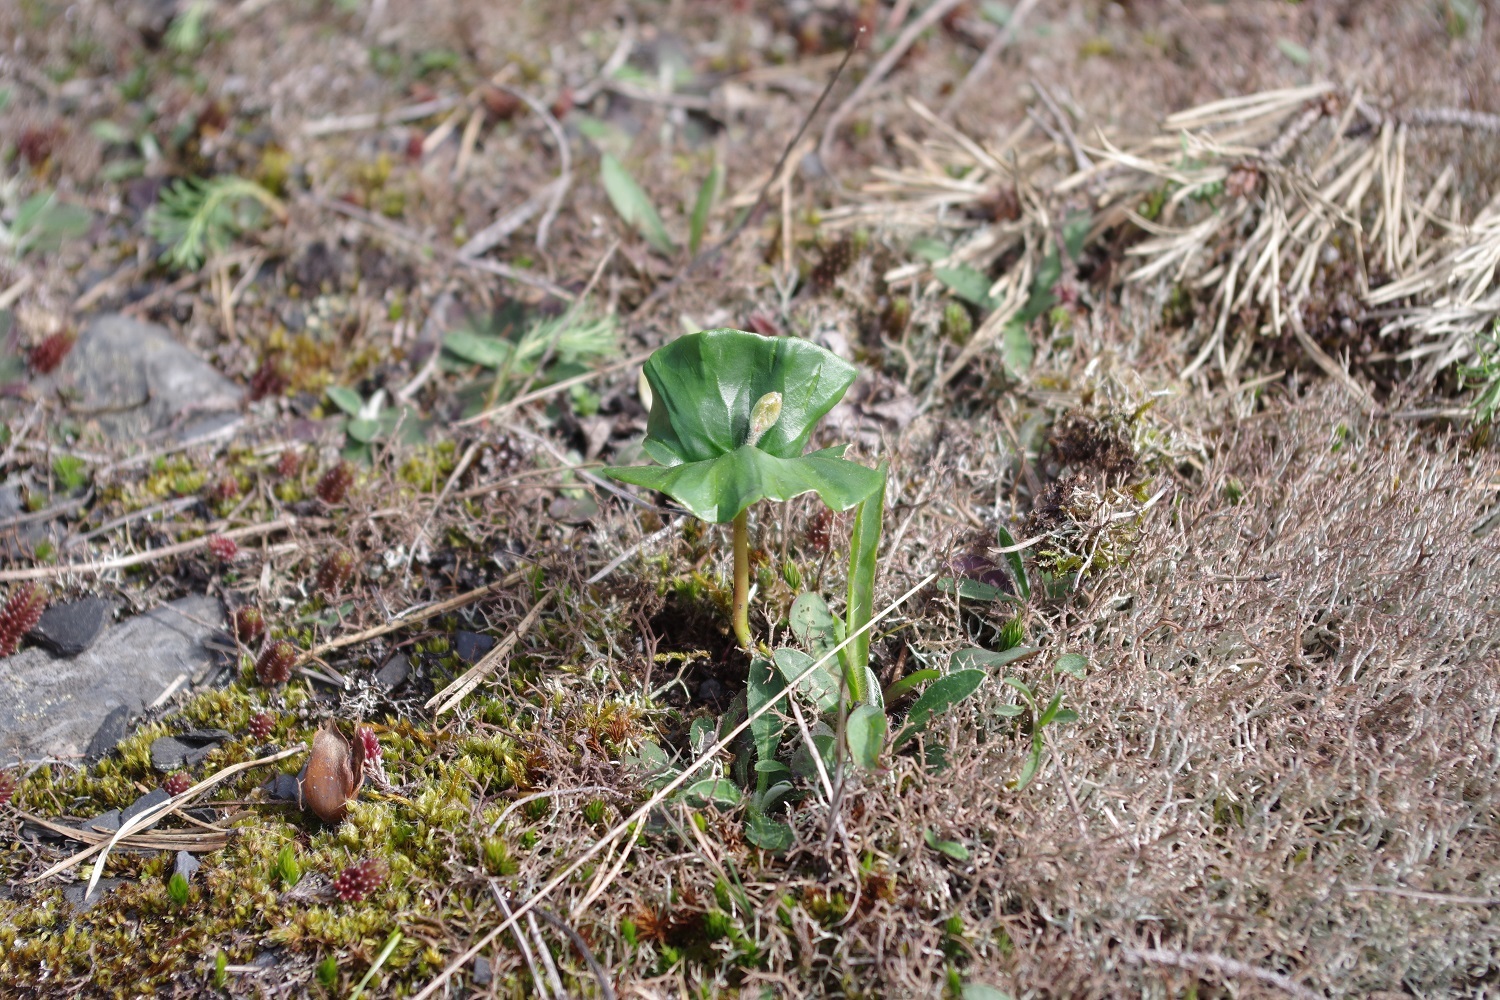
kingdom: Plantae
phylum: Tracheophyta
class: Magnoliopsida
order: Fagales
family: Fagaceae
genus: Fagus
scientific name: Fagus sylvatica
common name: Beech
